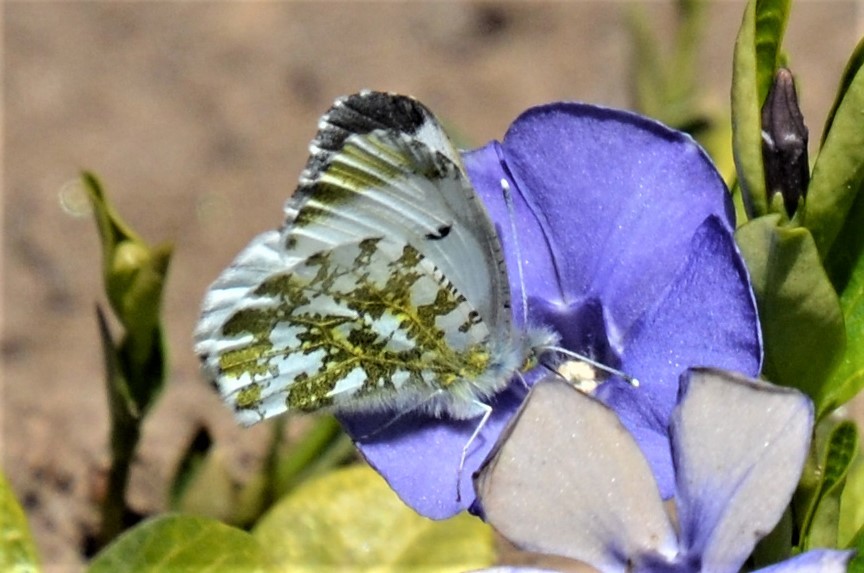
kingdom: Animalia
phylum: Arthropoda
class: Insecta
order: Lepidoptera
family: Pieridae
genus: Anthocharis
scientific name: Anthocharis cardamines
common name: Orange-tip
